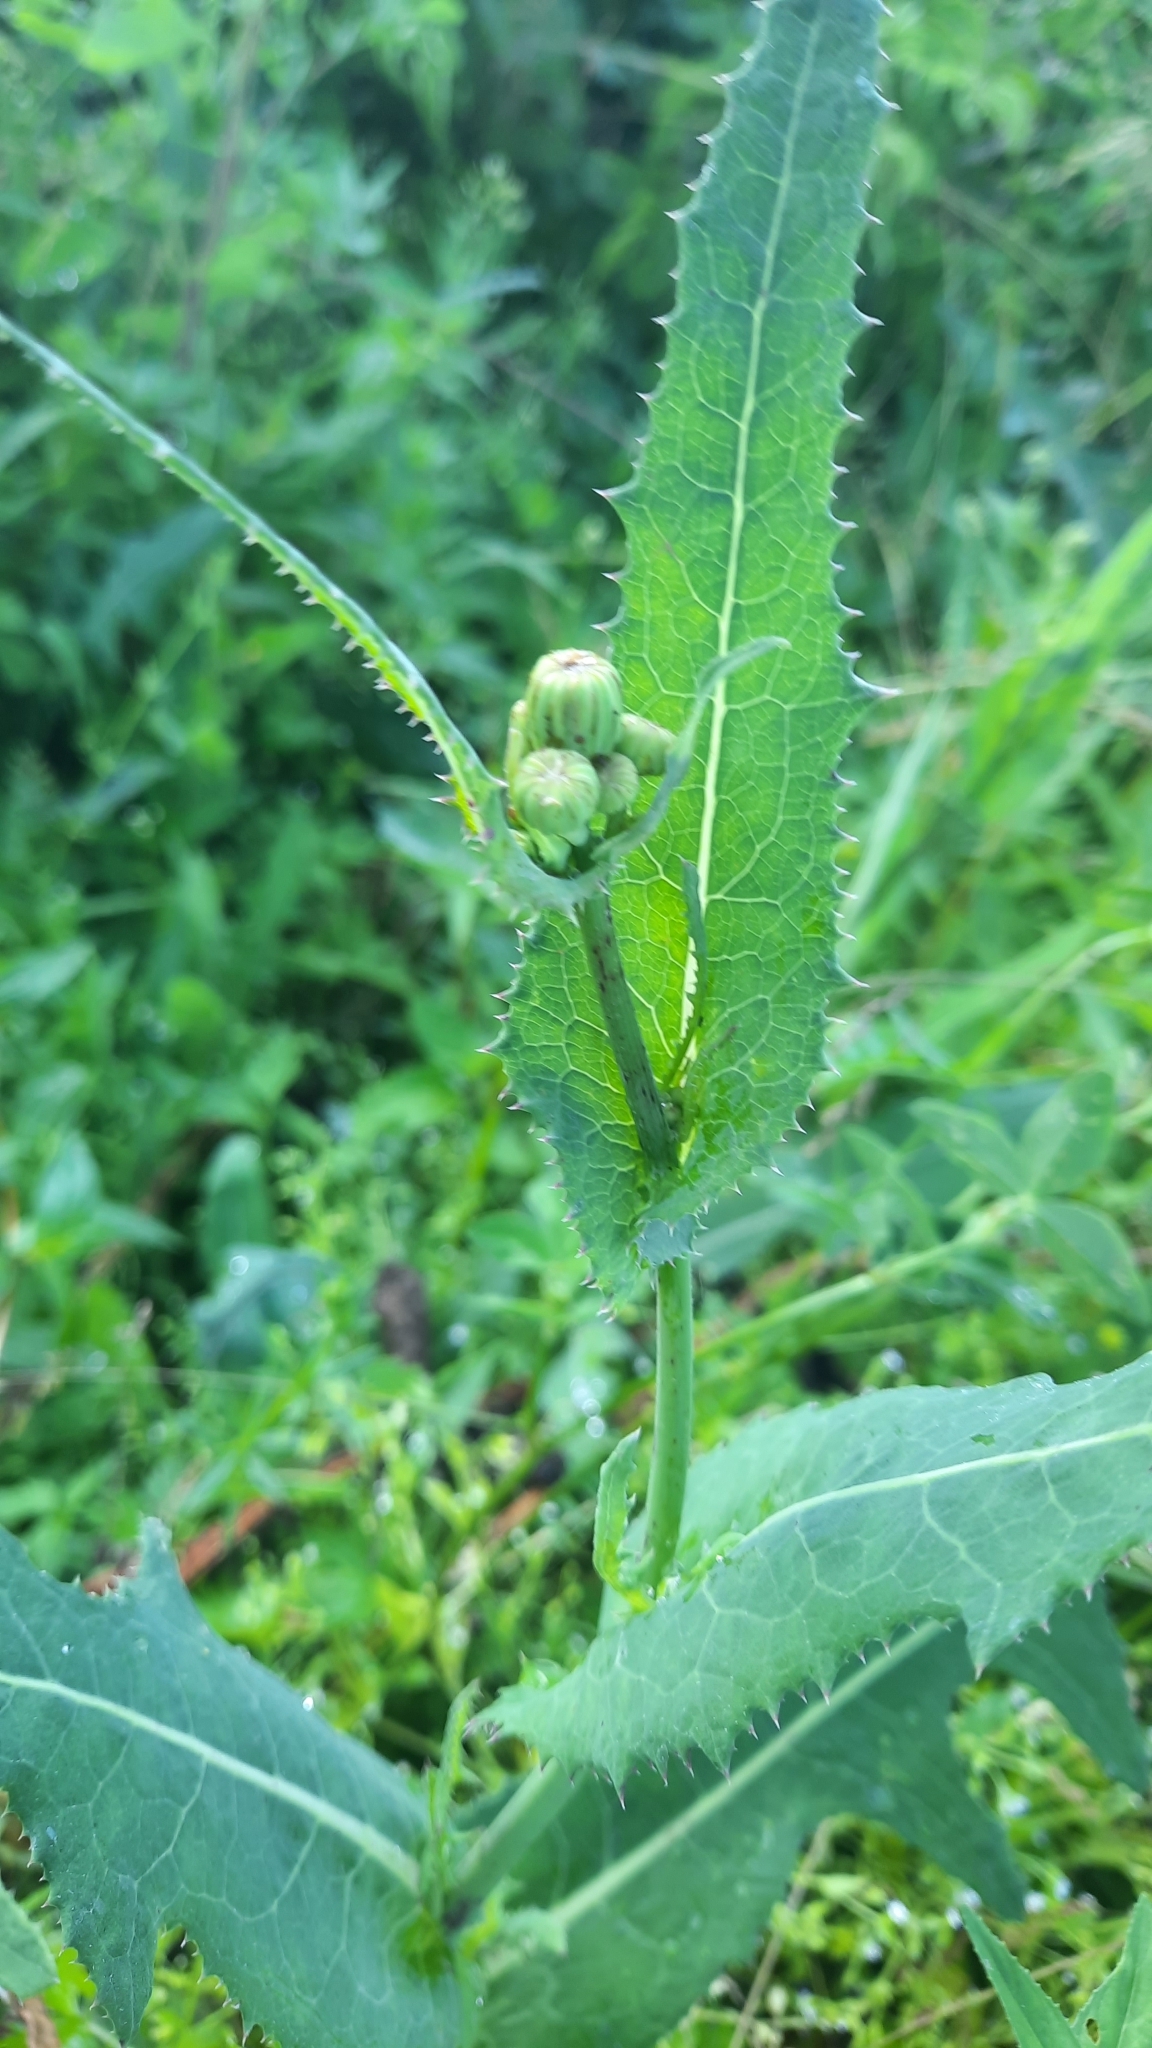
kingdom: Plantae
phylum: Tracheophyta
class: Magnoliopsida
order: Asterales
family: Asteraceae
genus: Sonchus
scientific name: Sonchus arvensis
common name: Perennial sow-thistle
